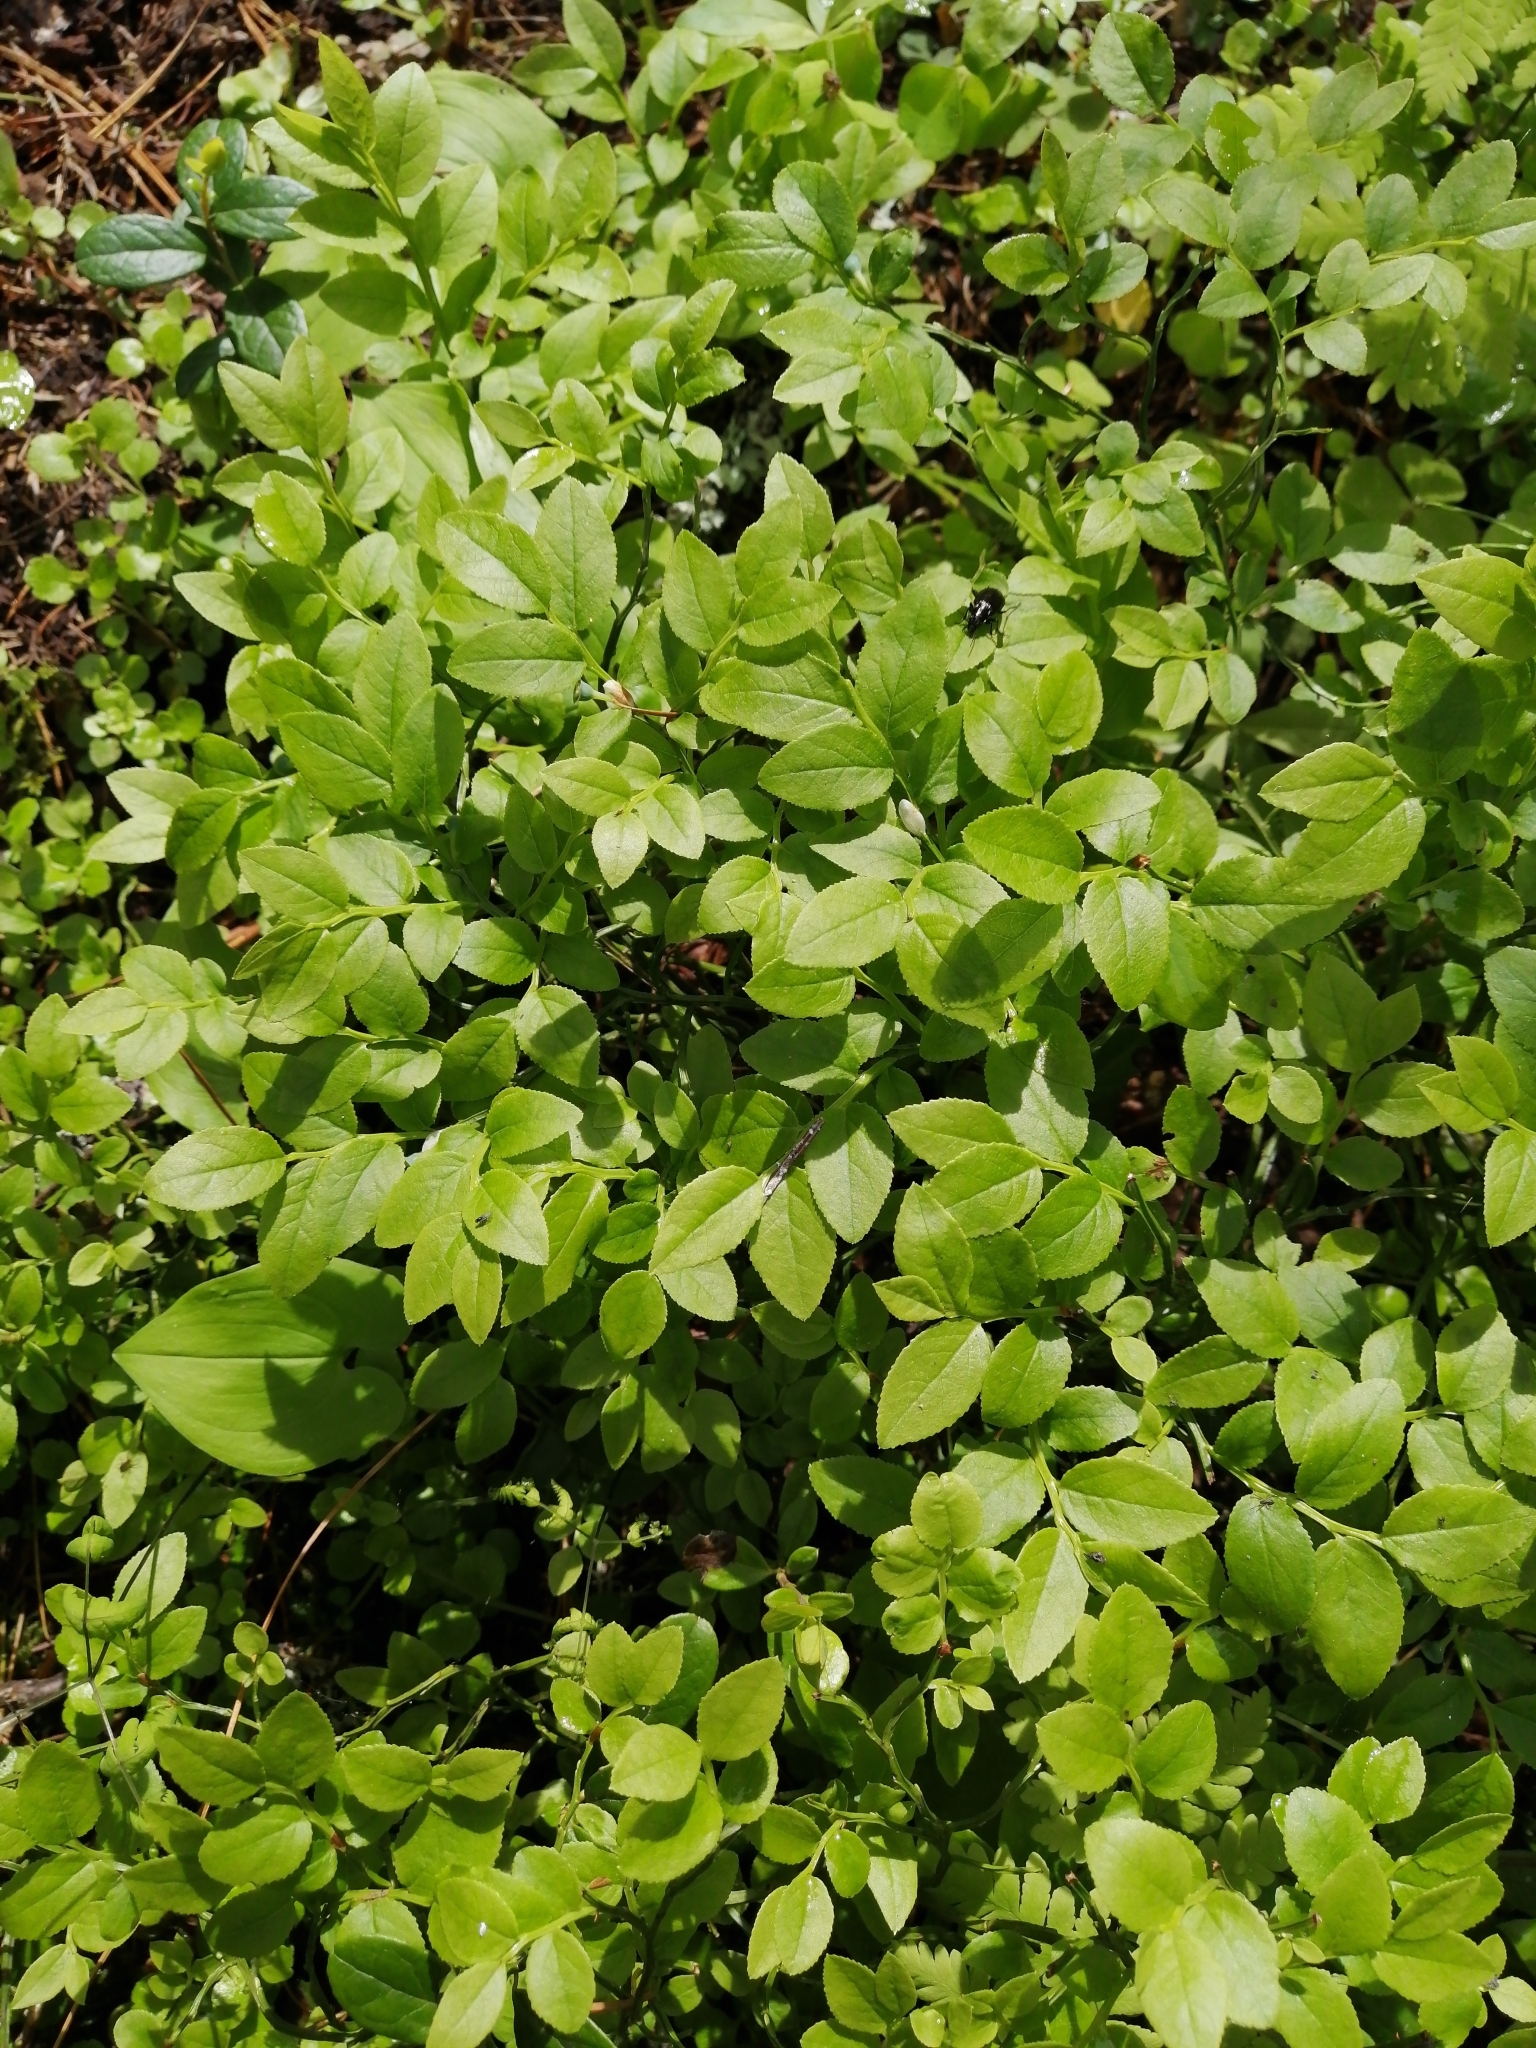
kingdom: Plantae
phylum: Tracheophyta
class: Magnoliopsida
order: Ericales
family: Ericaceae
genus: Vaccinium
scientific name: Vaccinium myrtillus
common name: Bilberry
